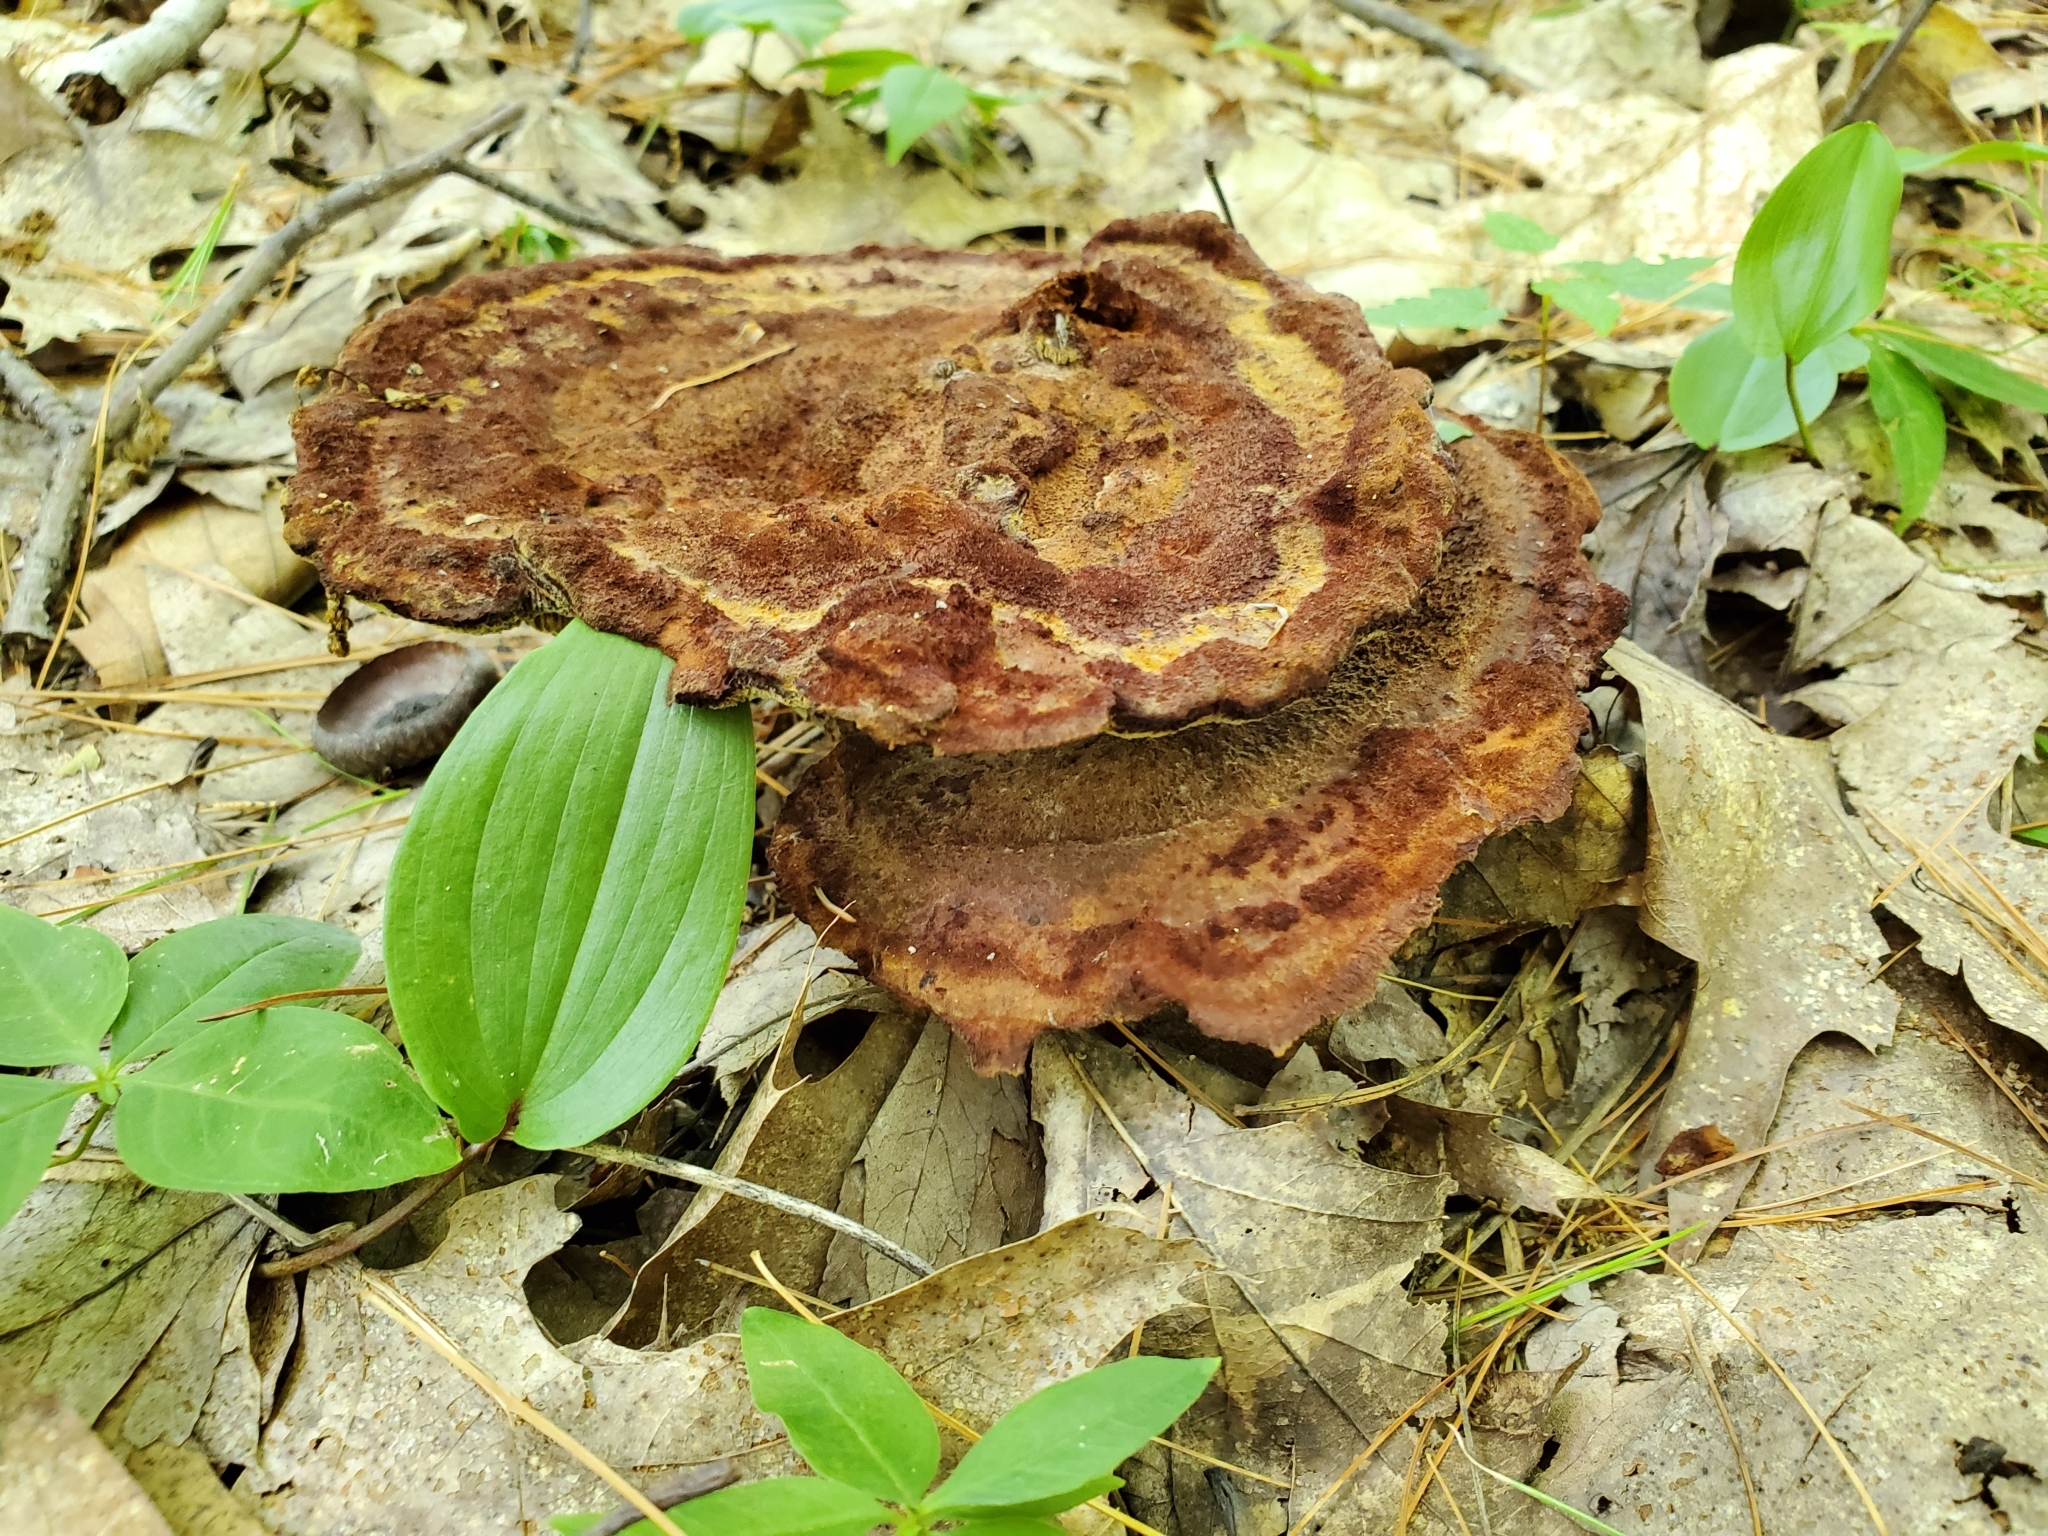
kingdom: Fungi
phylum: Basidiomycota
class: Agaricomycetes
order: Polyporales
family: Laetiporaceae
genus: Phaeolus
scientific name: Phaeolus schweinitzii
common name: Dyer's mazegill
